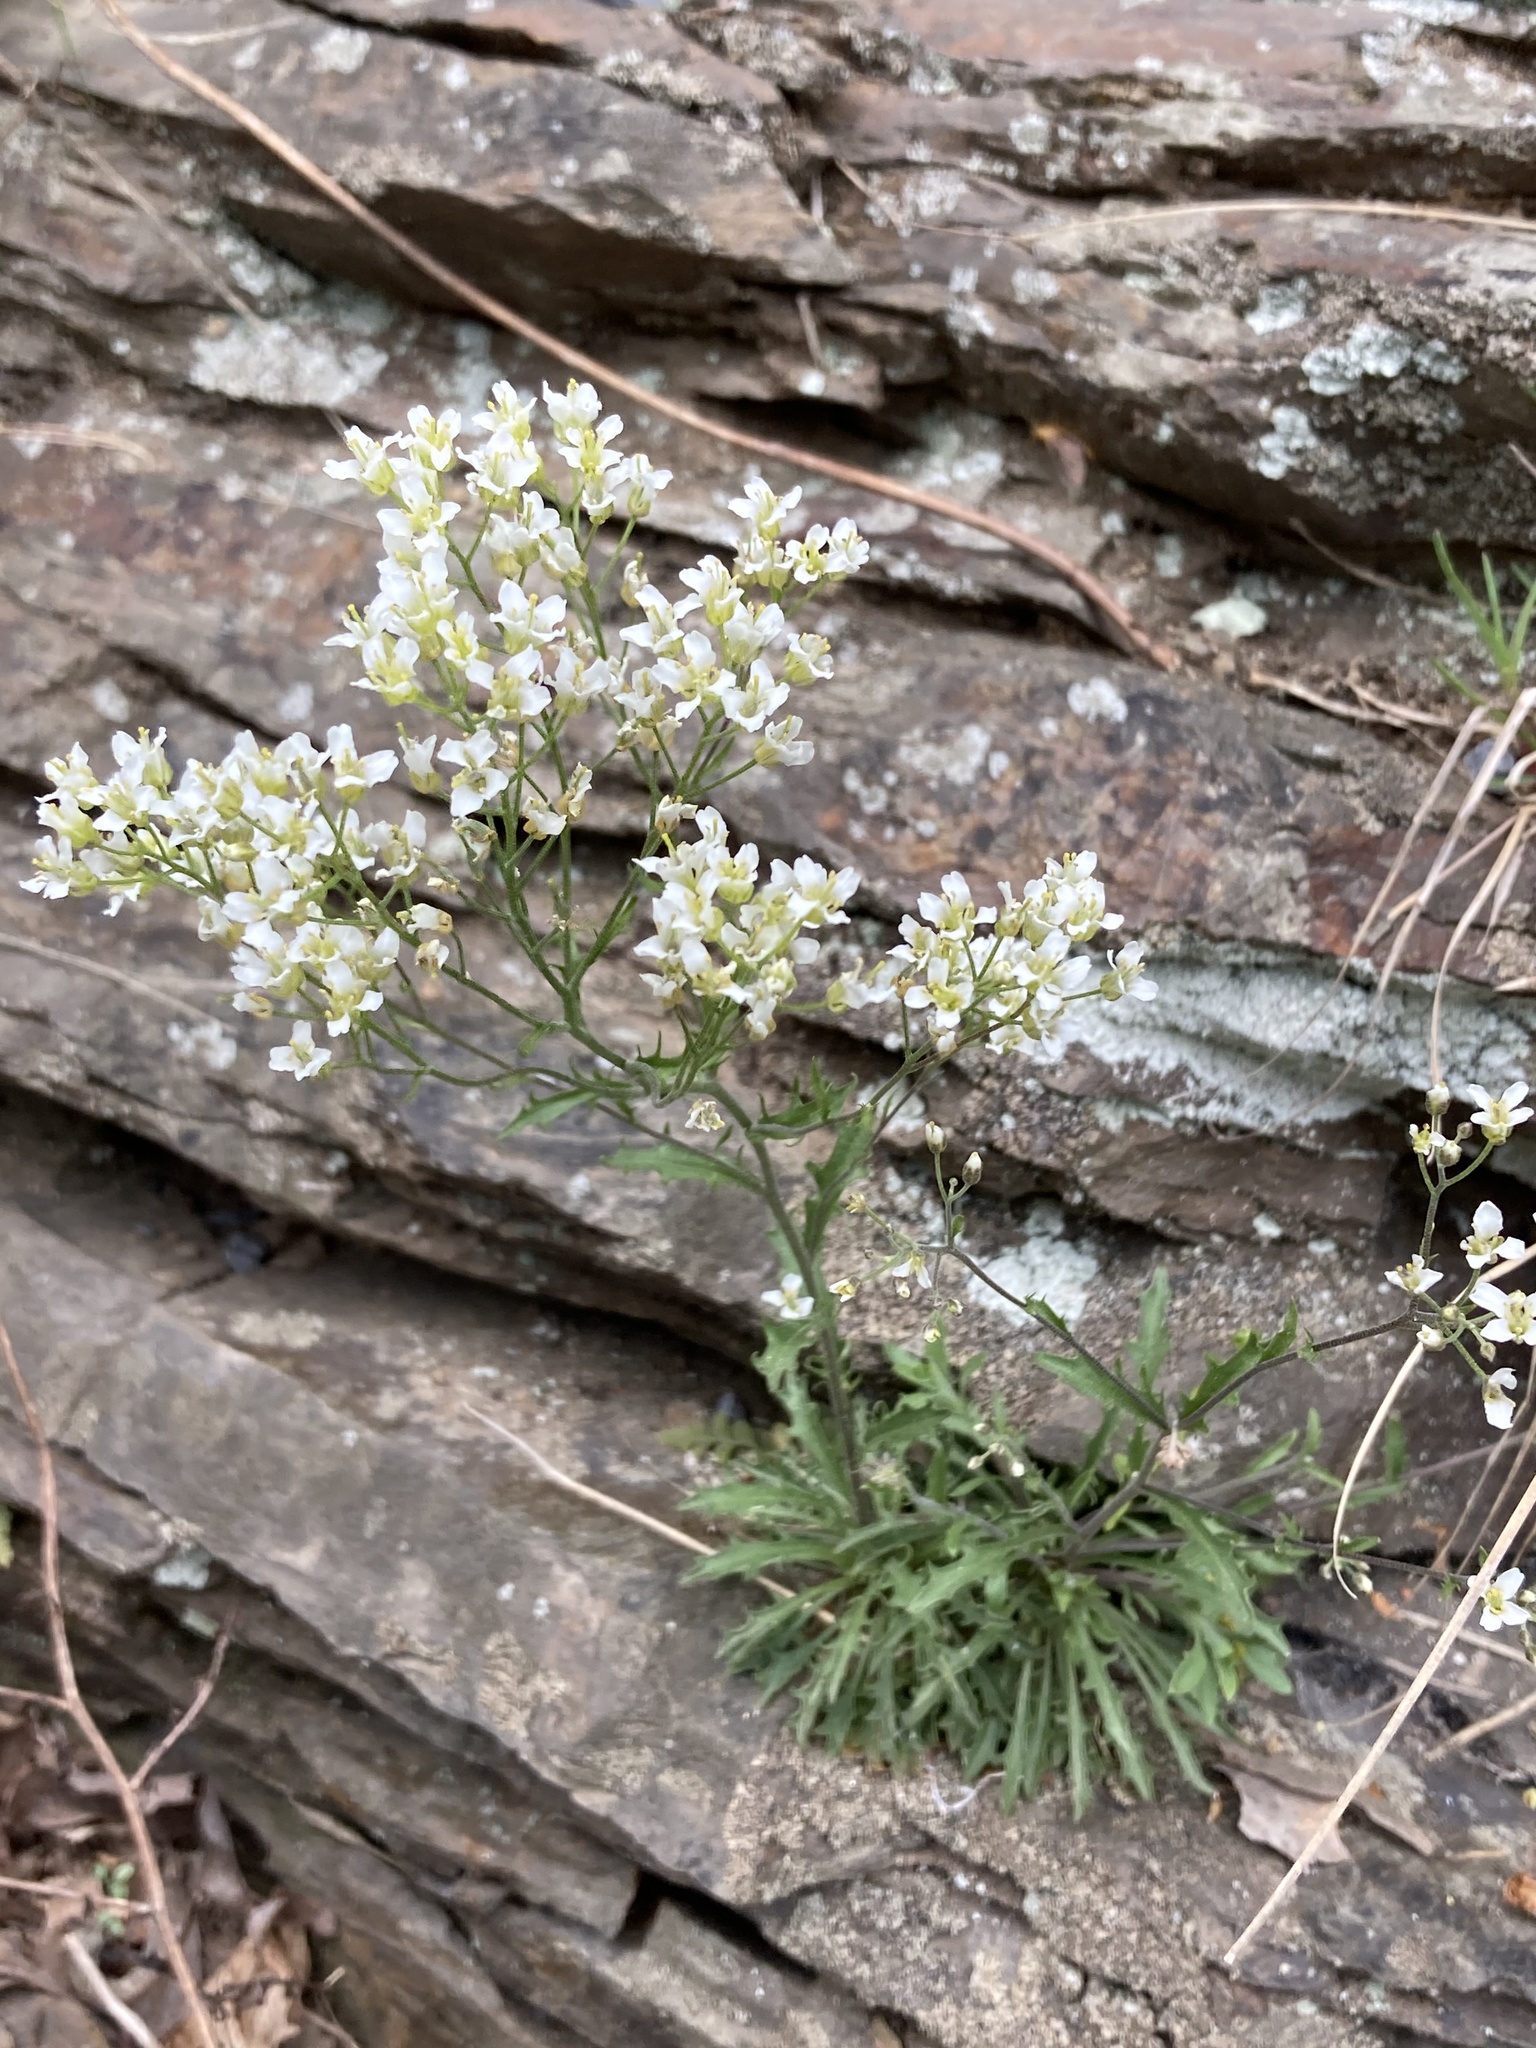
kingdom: Plantae
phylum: Tracheophyta
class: Magnoliopsida
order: Brassicales
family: Brassicaceae
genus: Draba
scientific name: Draba ramosissima
